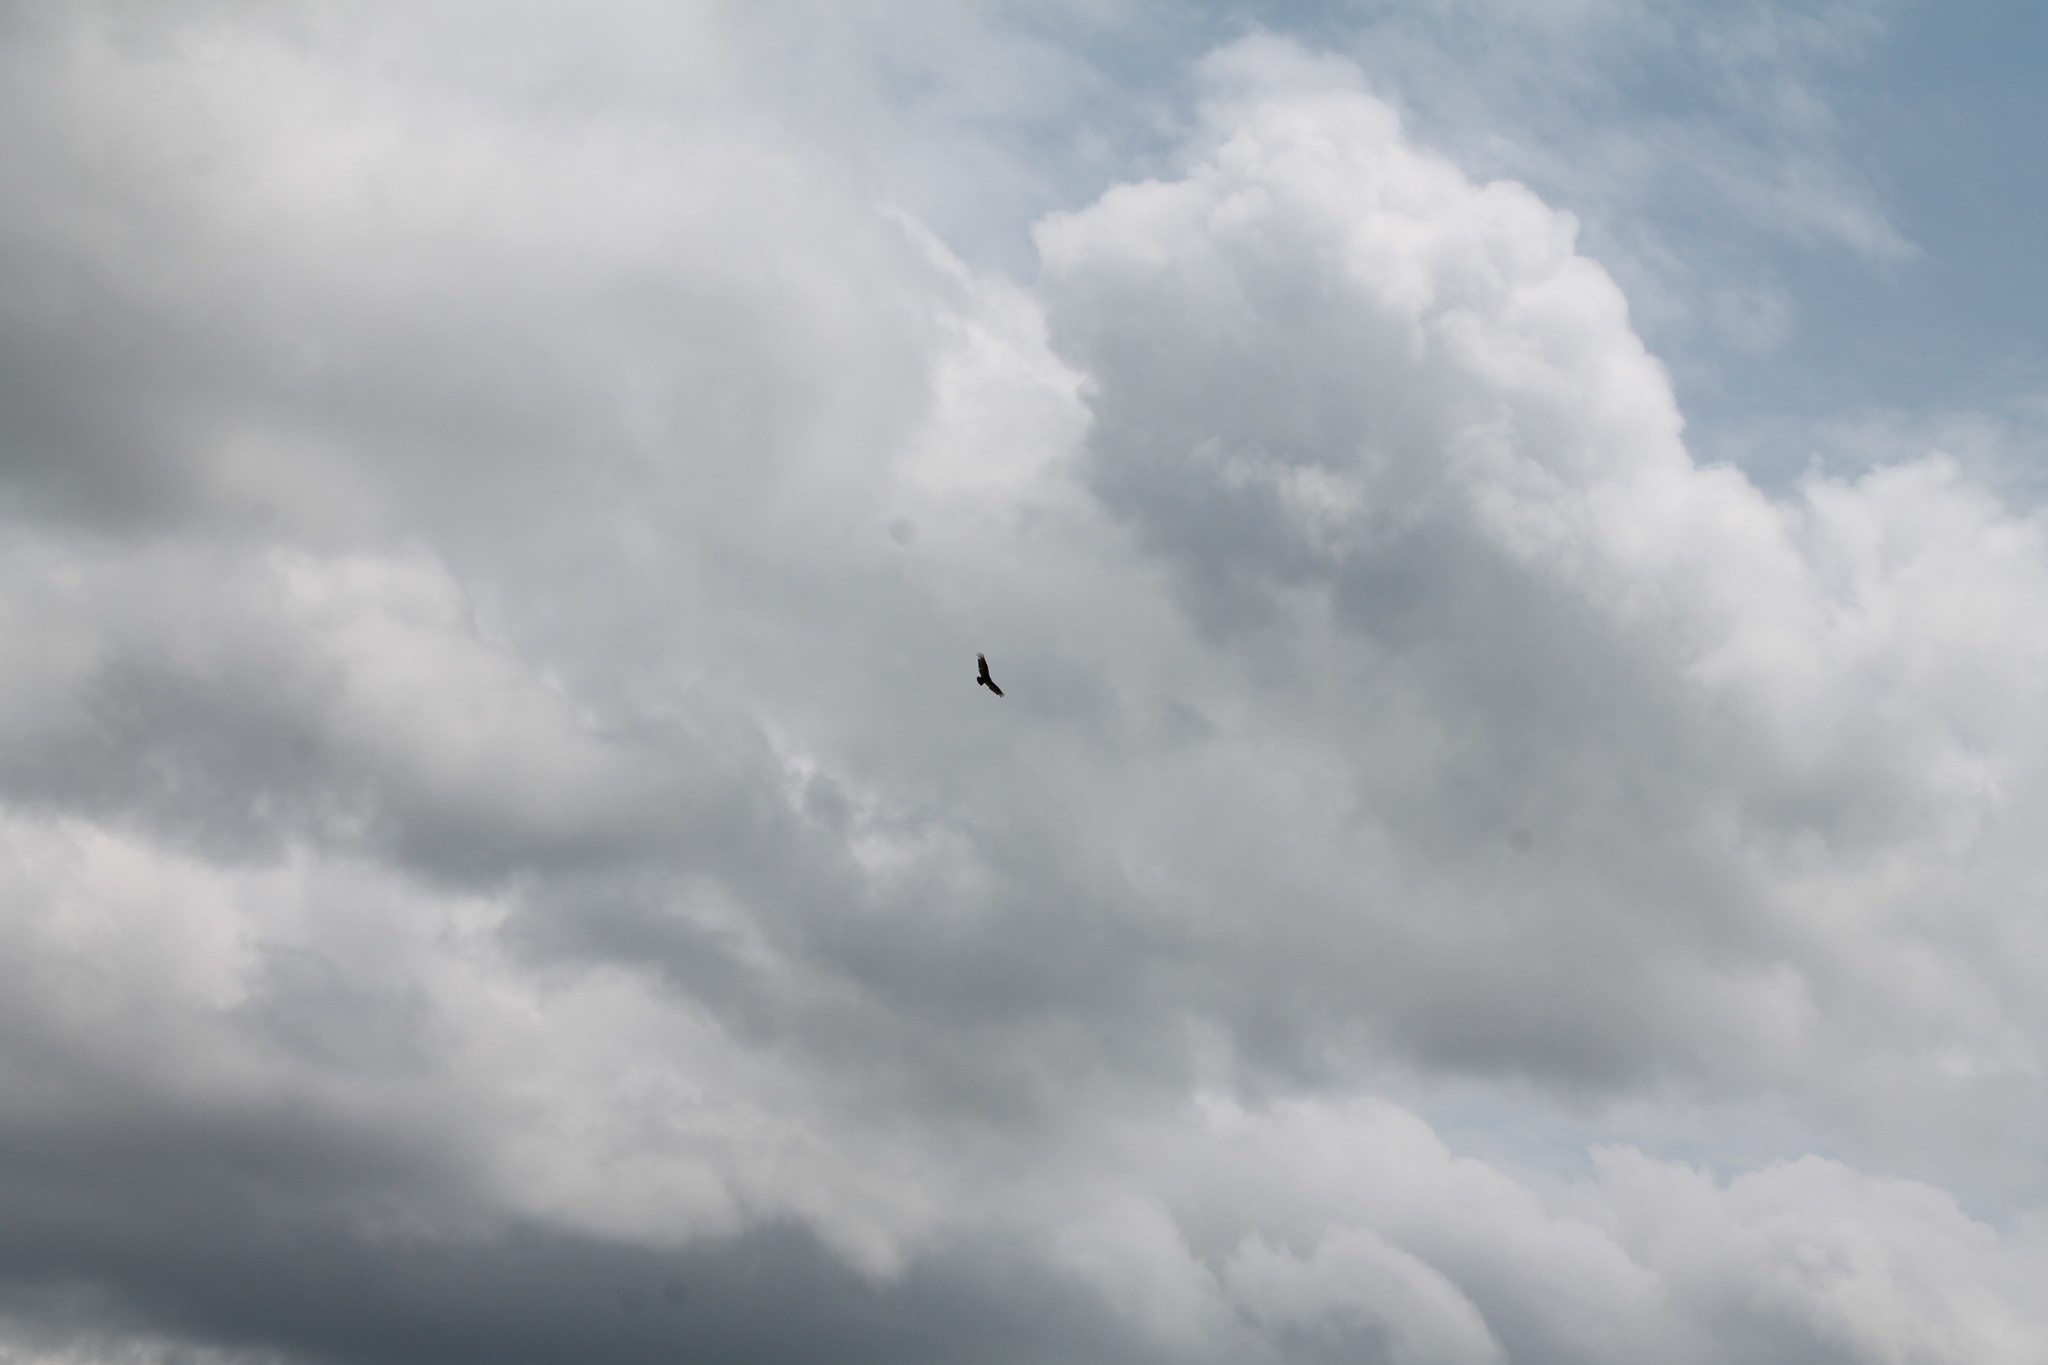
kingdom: Animalia
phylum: Chordata
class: Aves
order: Accipitriformes
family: Cathartidae
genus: Cathartes
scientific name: Cathartes aura
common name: Turkey vulture
